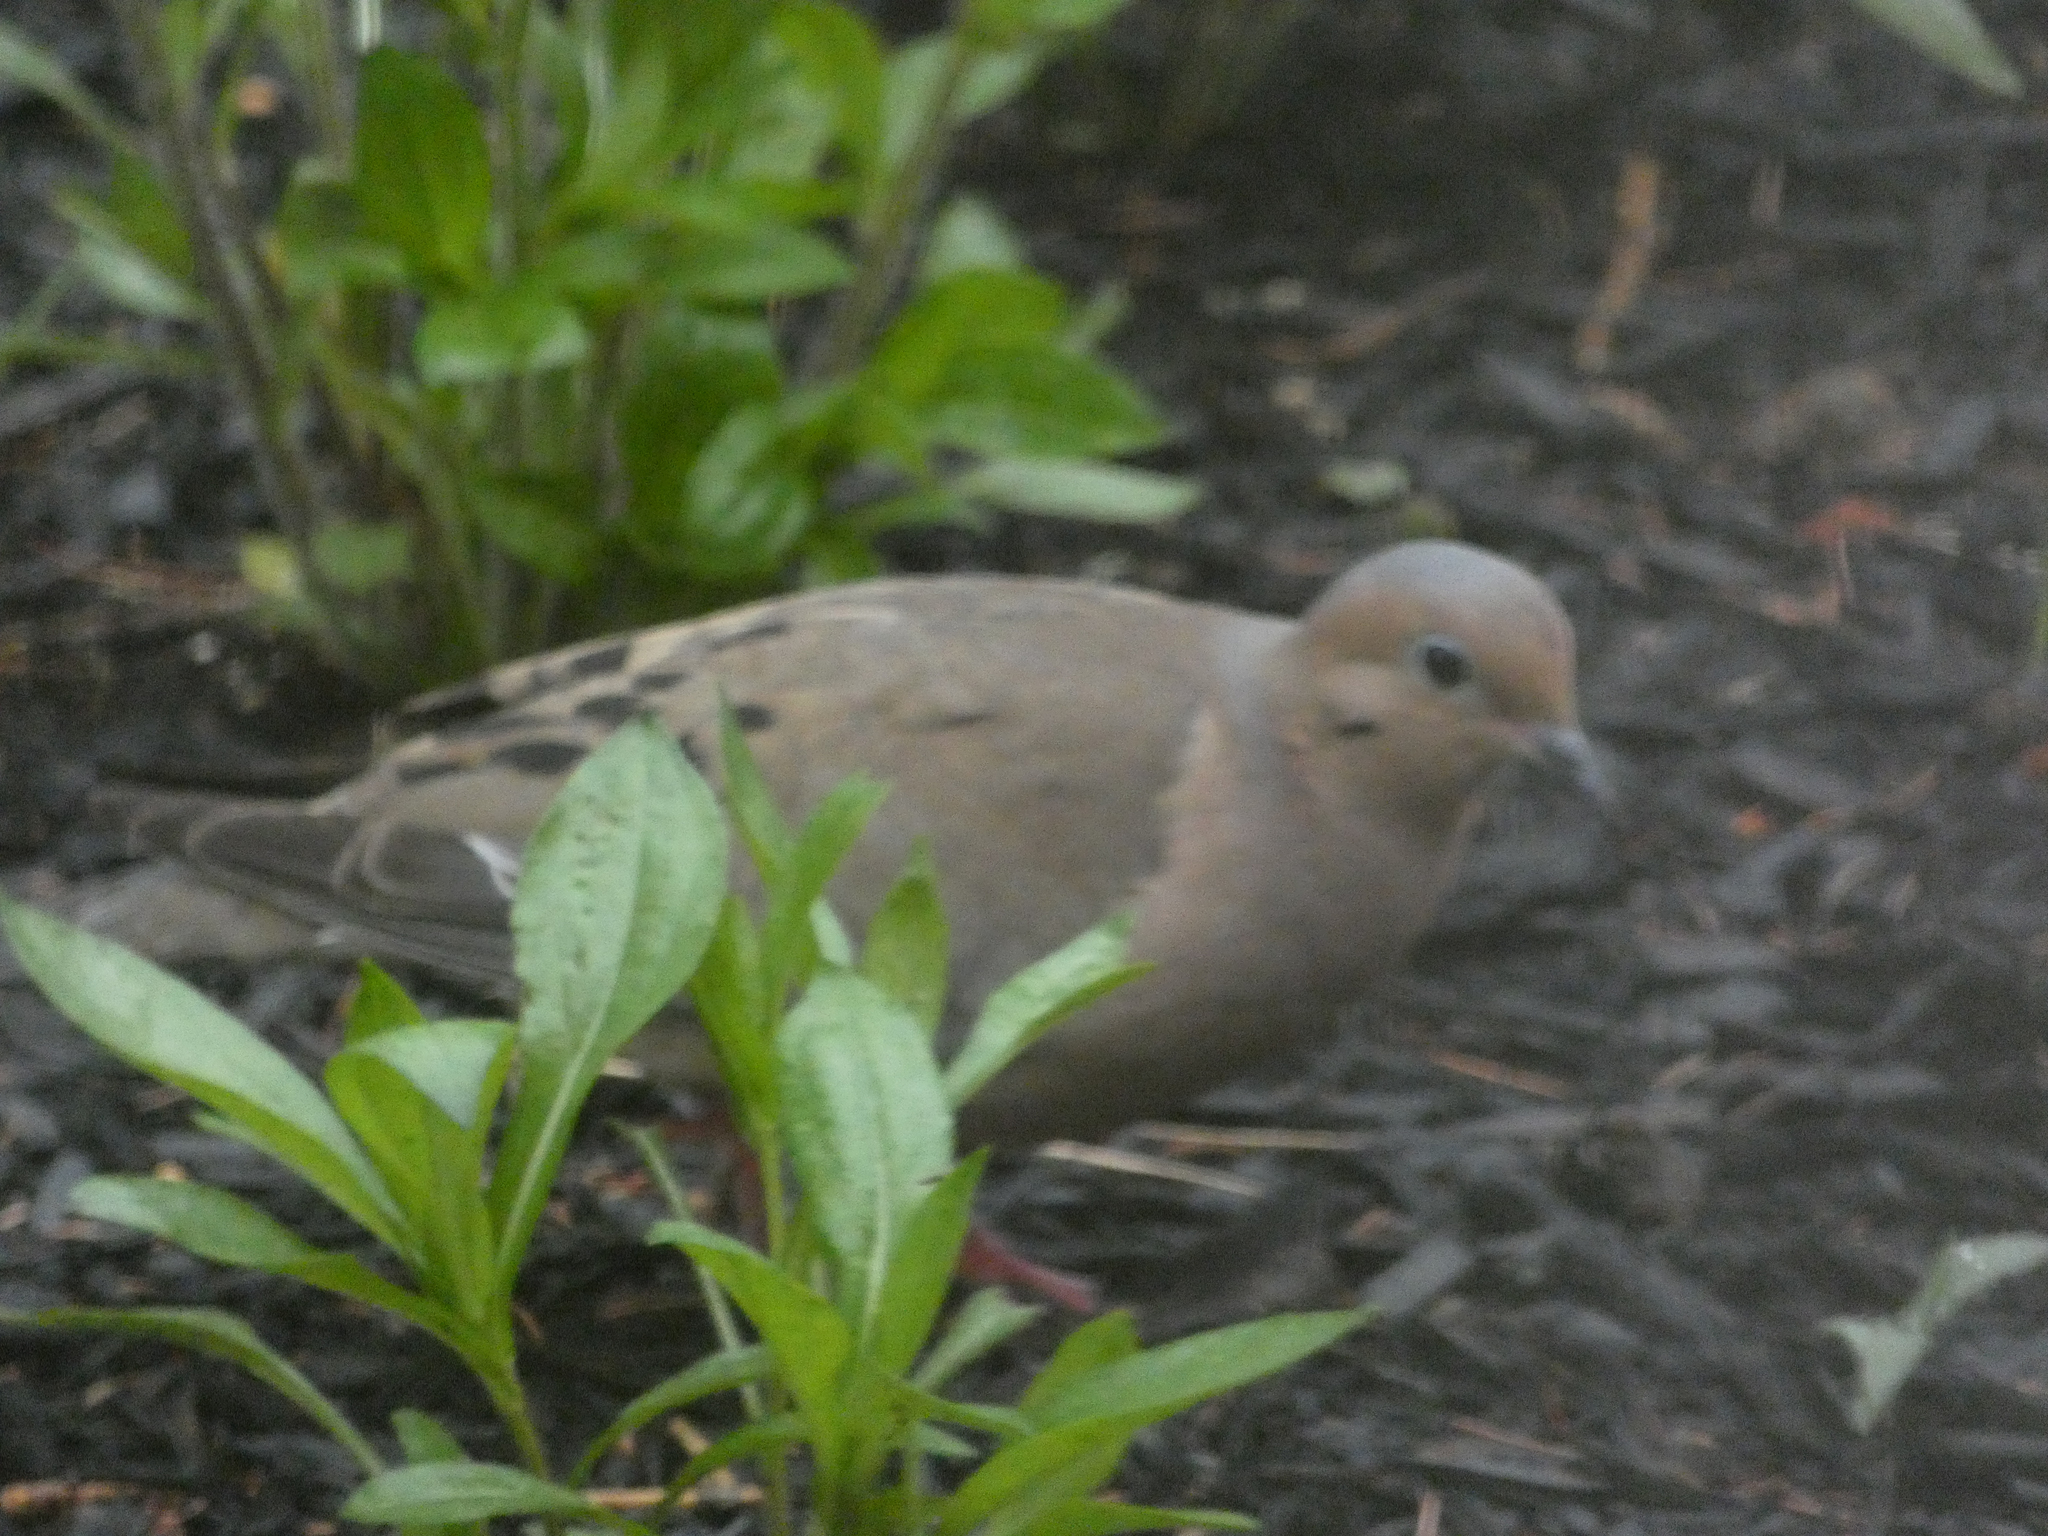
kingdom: Animalia
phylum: Chordata
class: Aves
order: Columbiformes
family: Columbidae
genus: Zenaida
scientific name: Zenaida macroura
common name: Mourning dove
